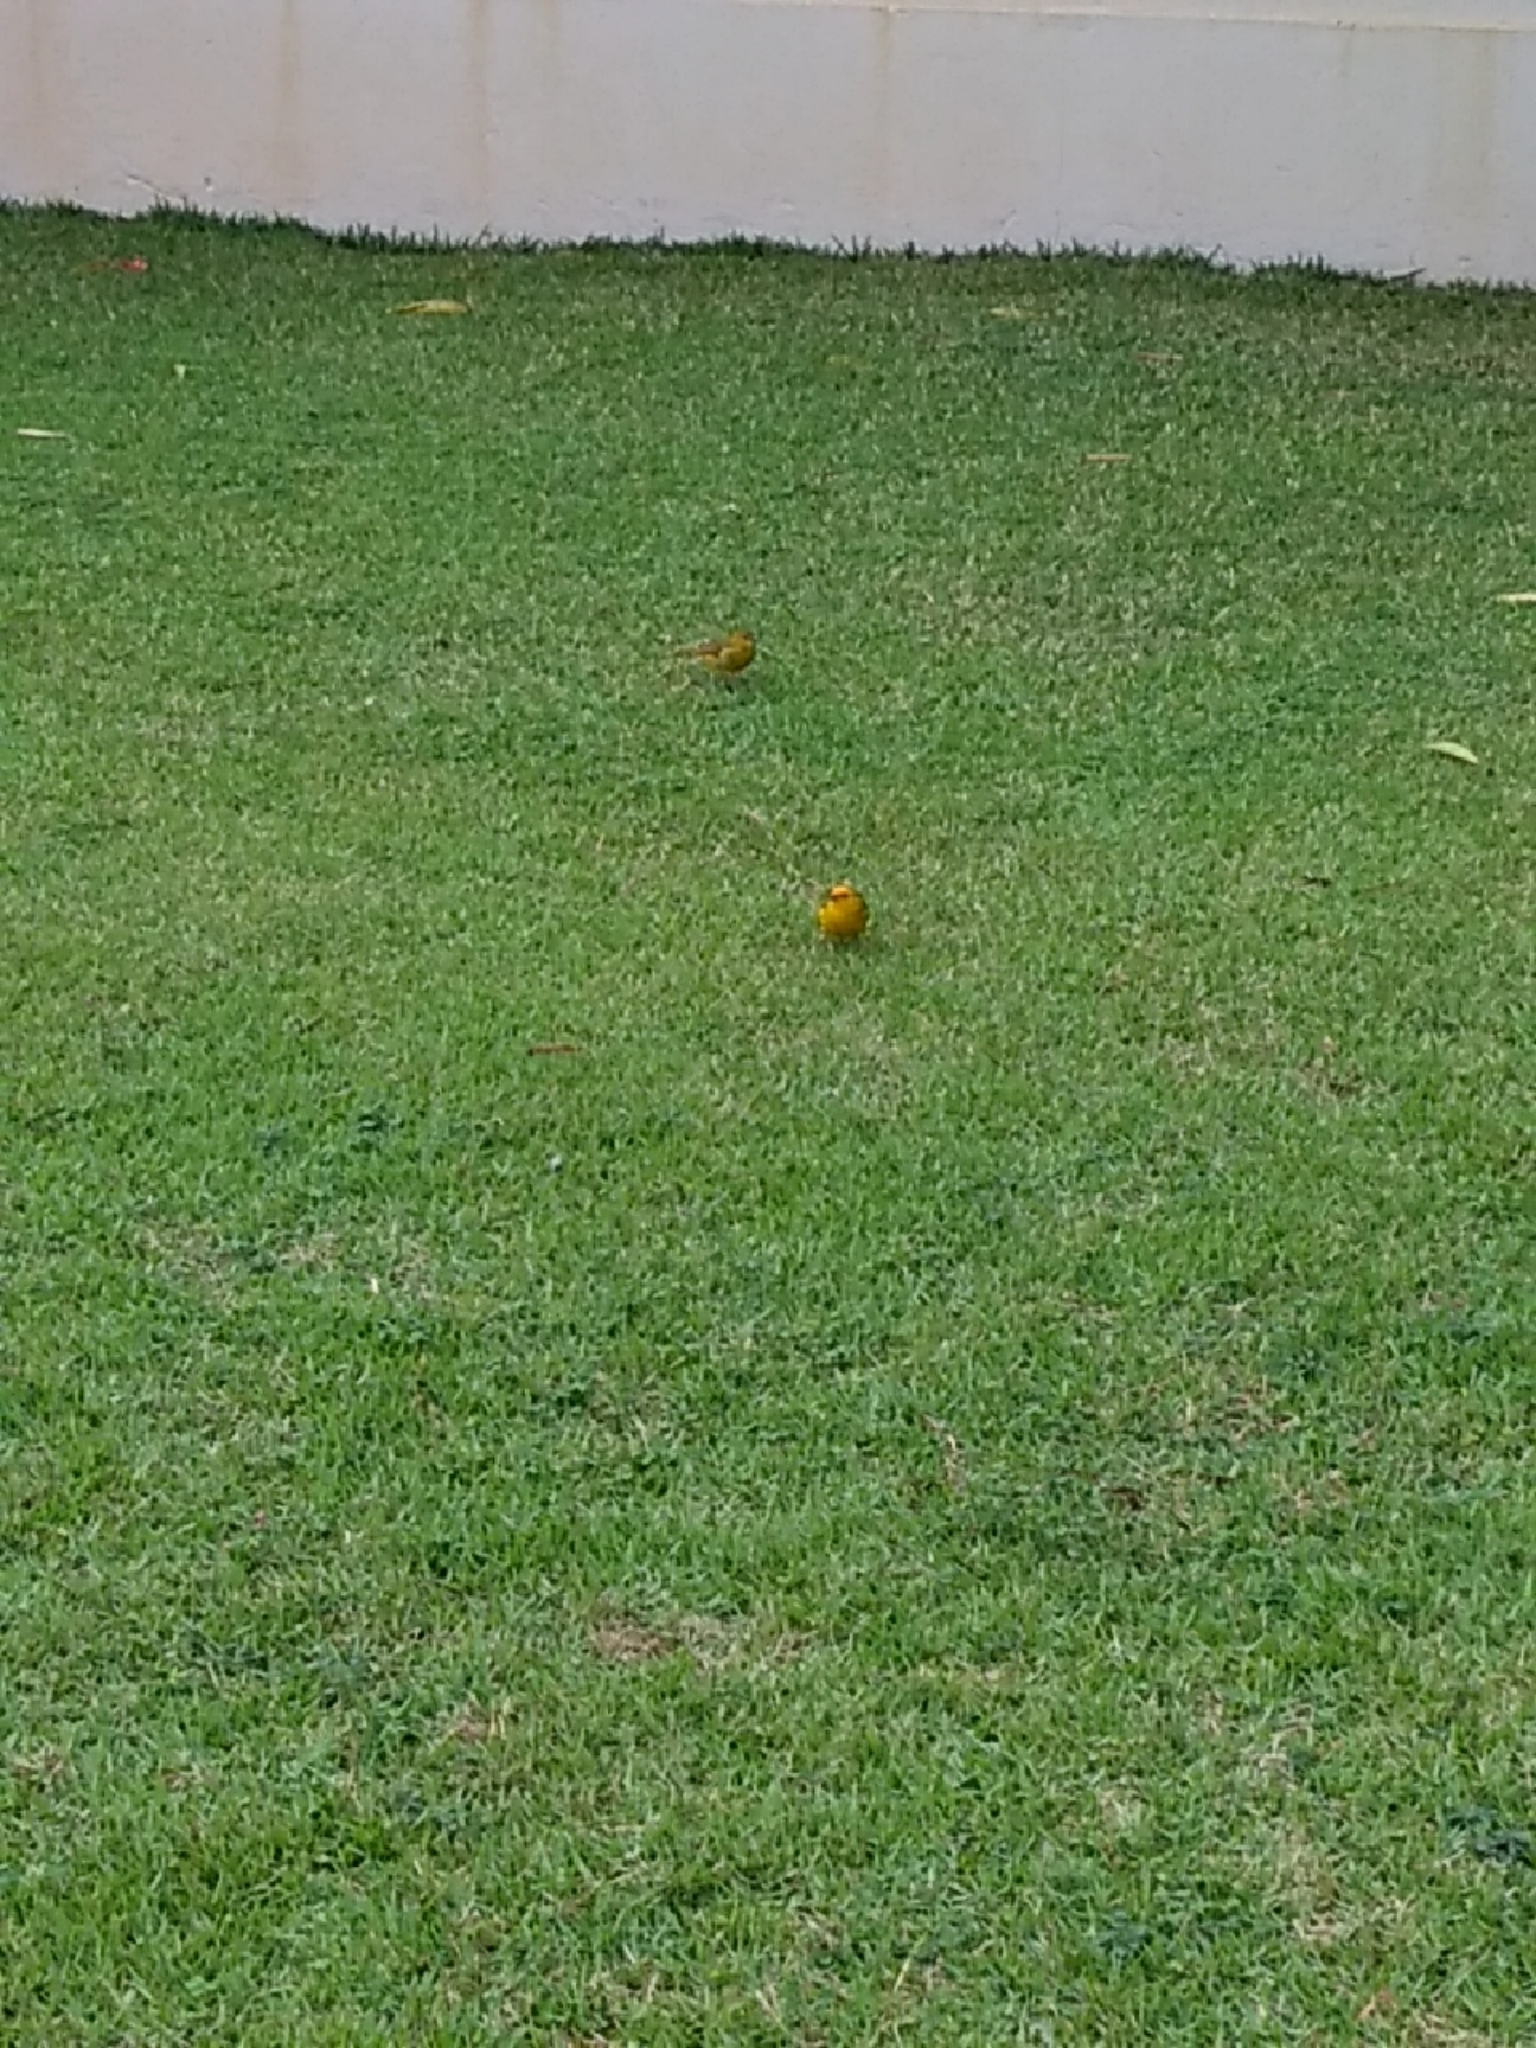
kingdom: Animalia
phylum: Chordata
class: Aves
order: Passeriformes
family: Thraupidae
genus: Sicalis
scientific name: Sicalis flaveola
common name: Saffron finch
